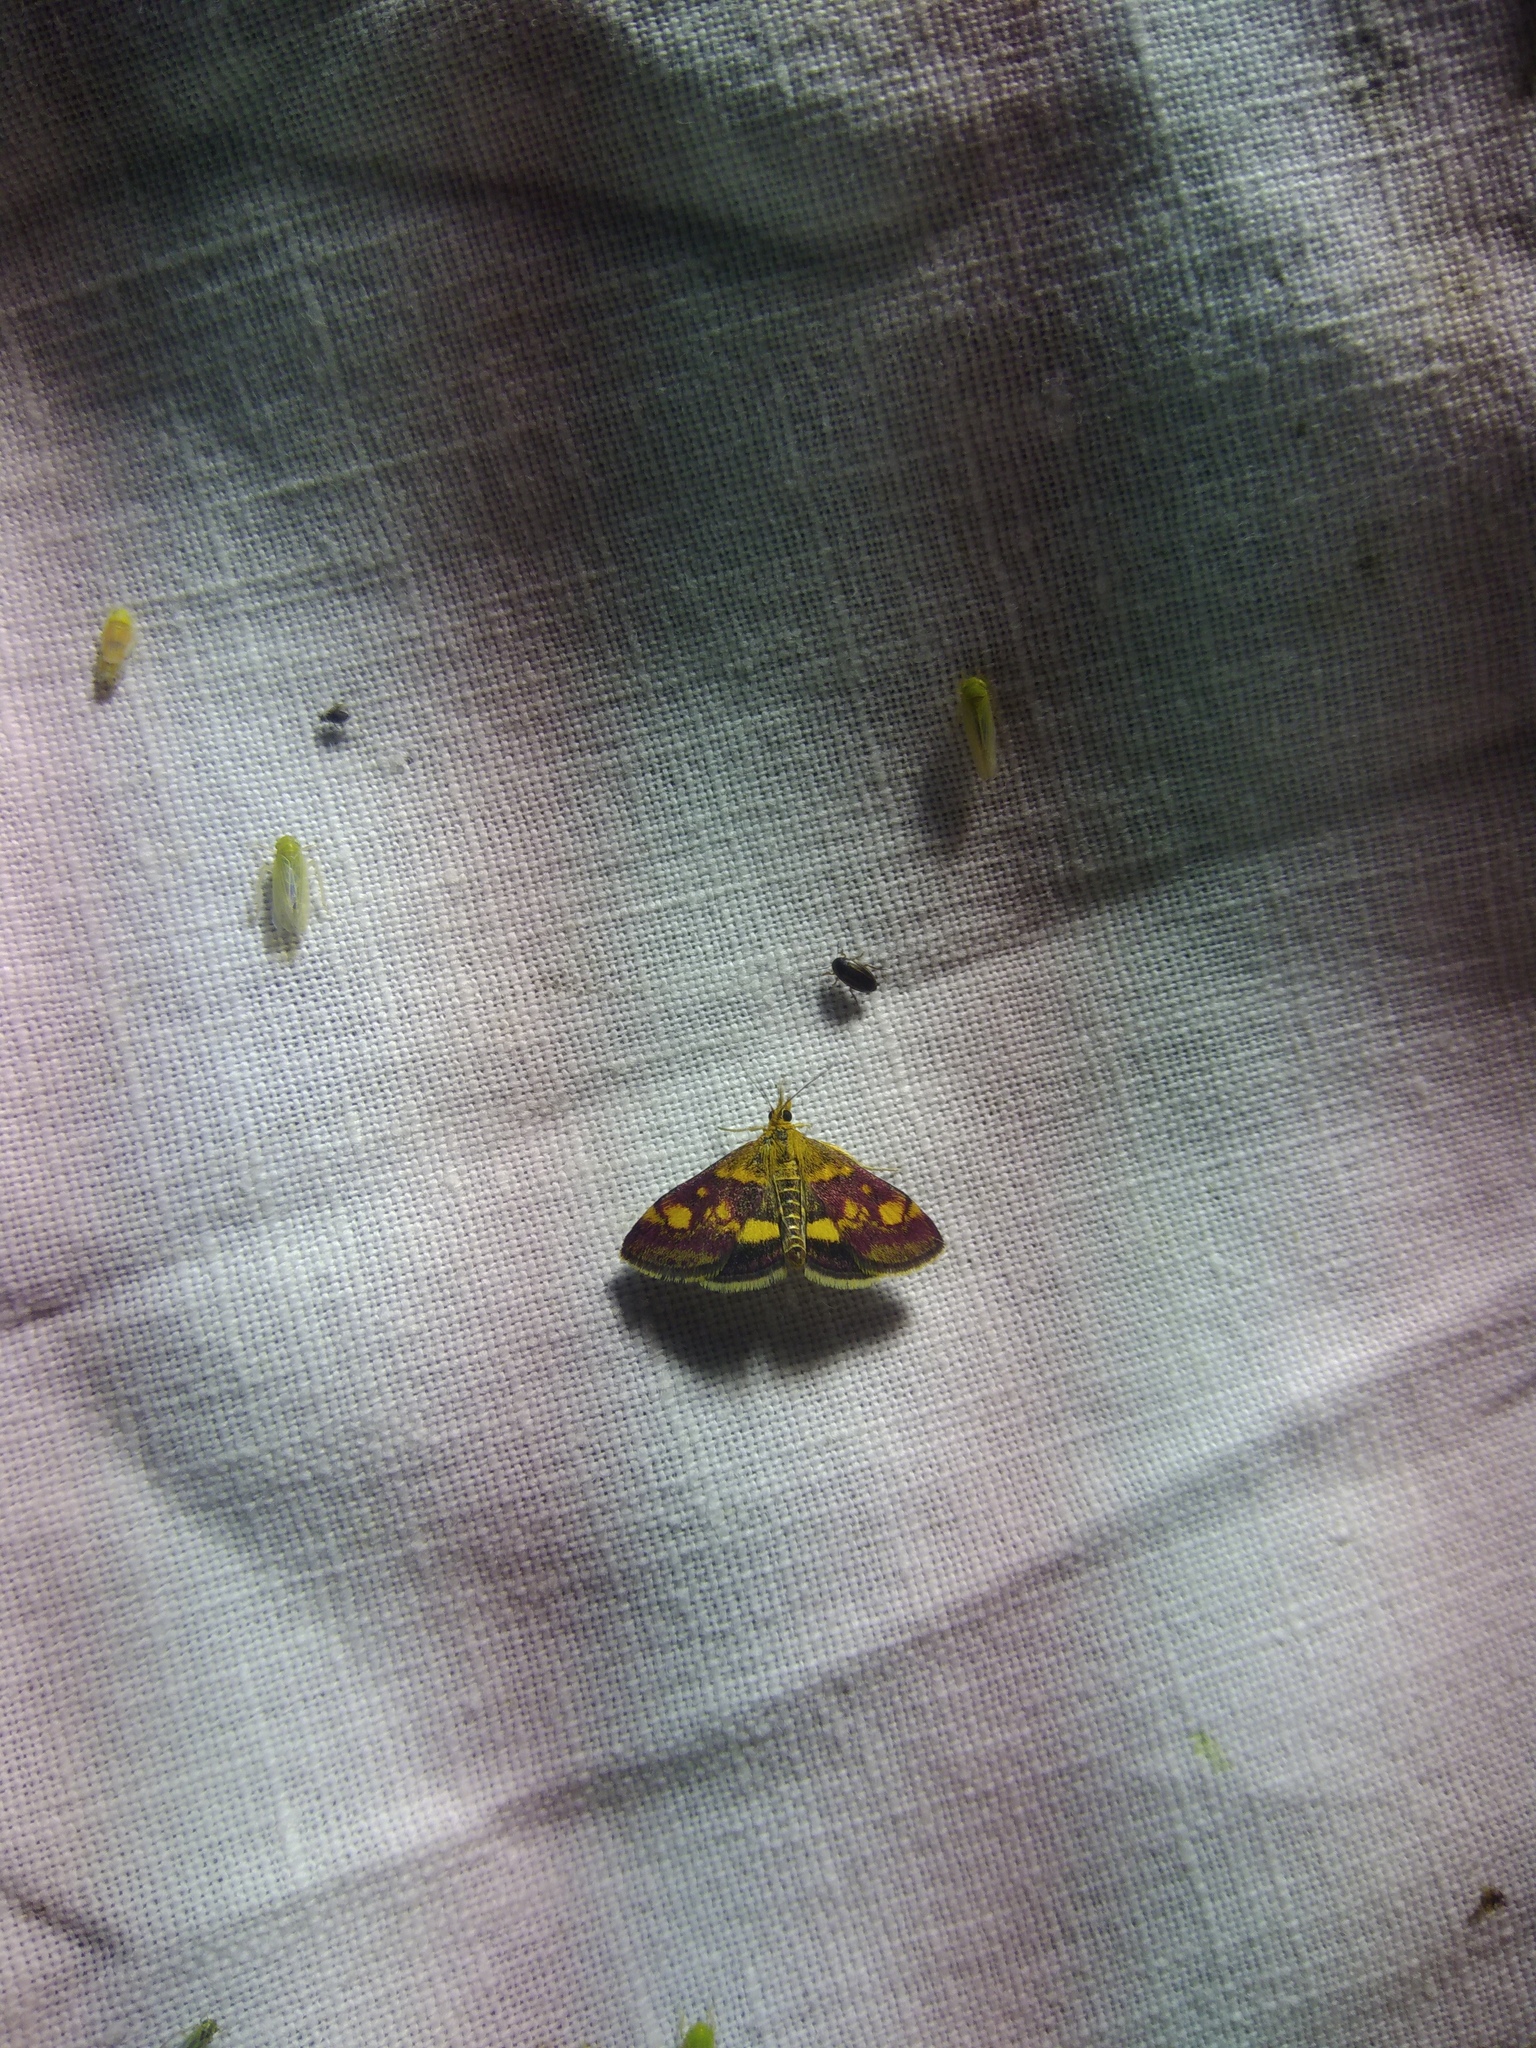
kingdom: Animalia
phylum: Arthropoda
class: Insecta
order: Lepidoptera
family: Crambidae
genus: Pyrausta
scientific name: Pyrausta aurata
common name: Small purple & gold
